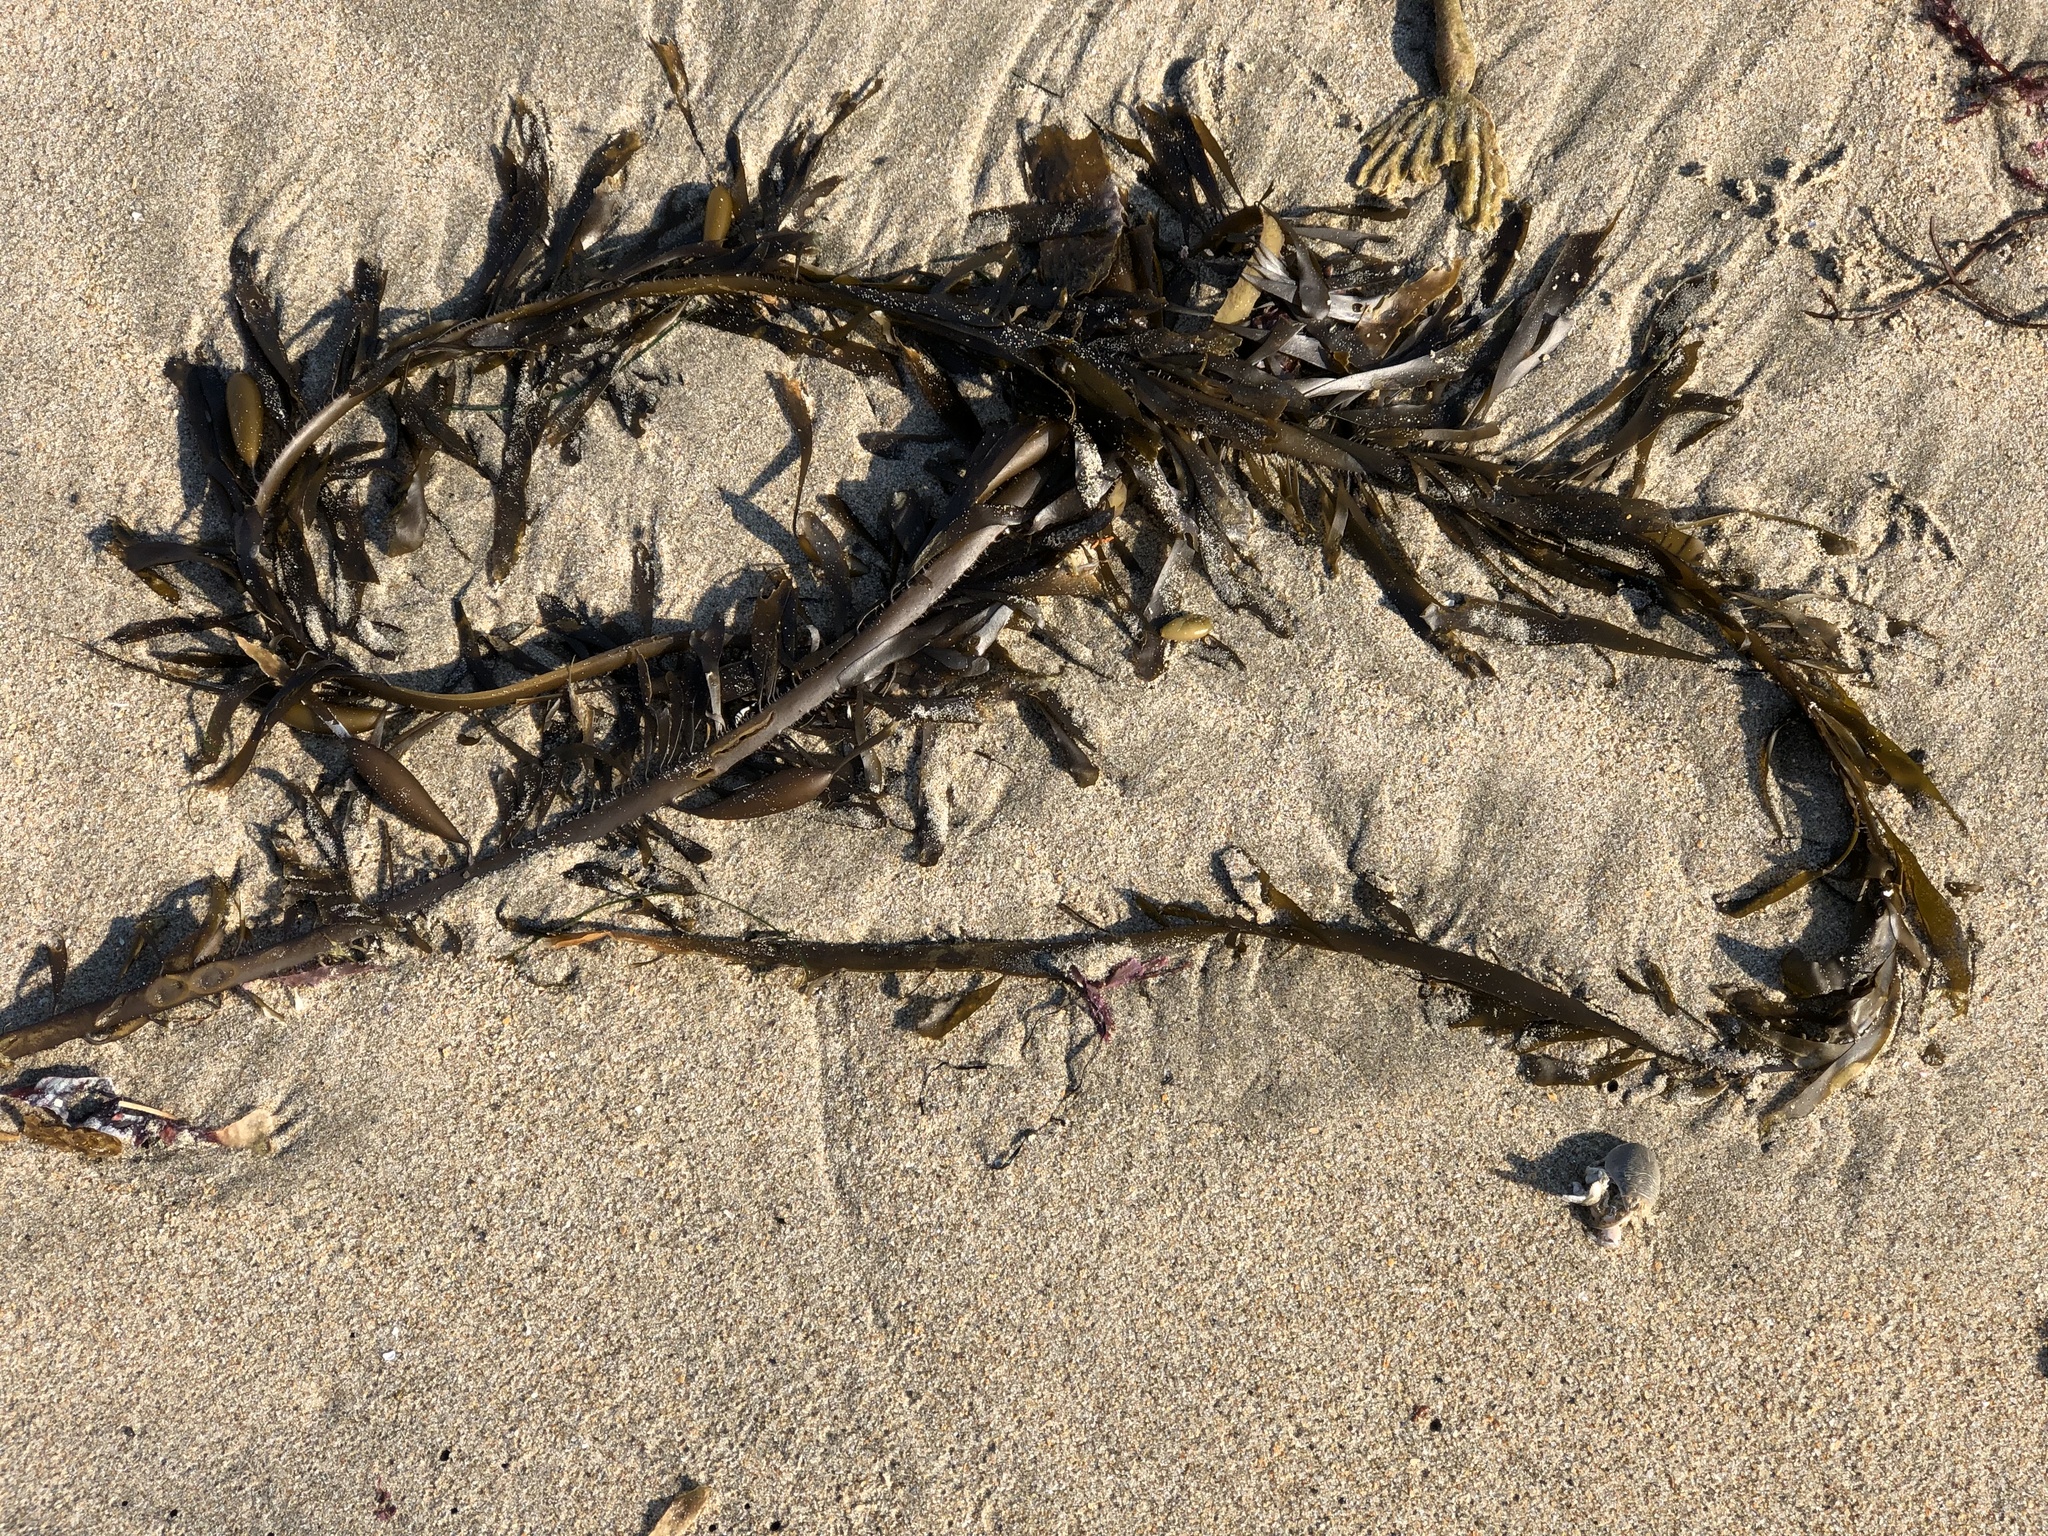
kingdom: Chromista
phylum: Ochrophyta
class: Phaeophyceae
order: Laminariales
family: Lessoniaceae
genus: Egregia
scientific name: Egregia menziesii
